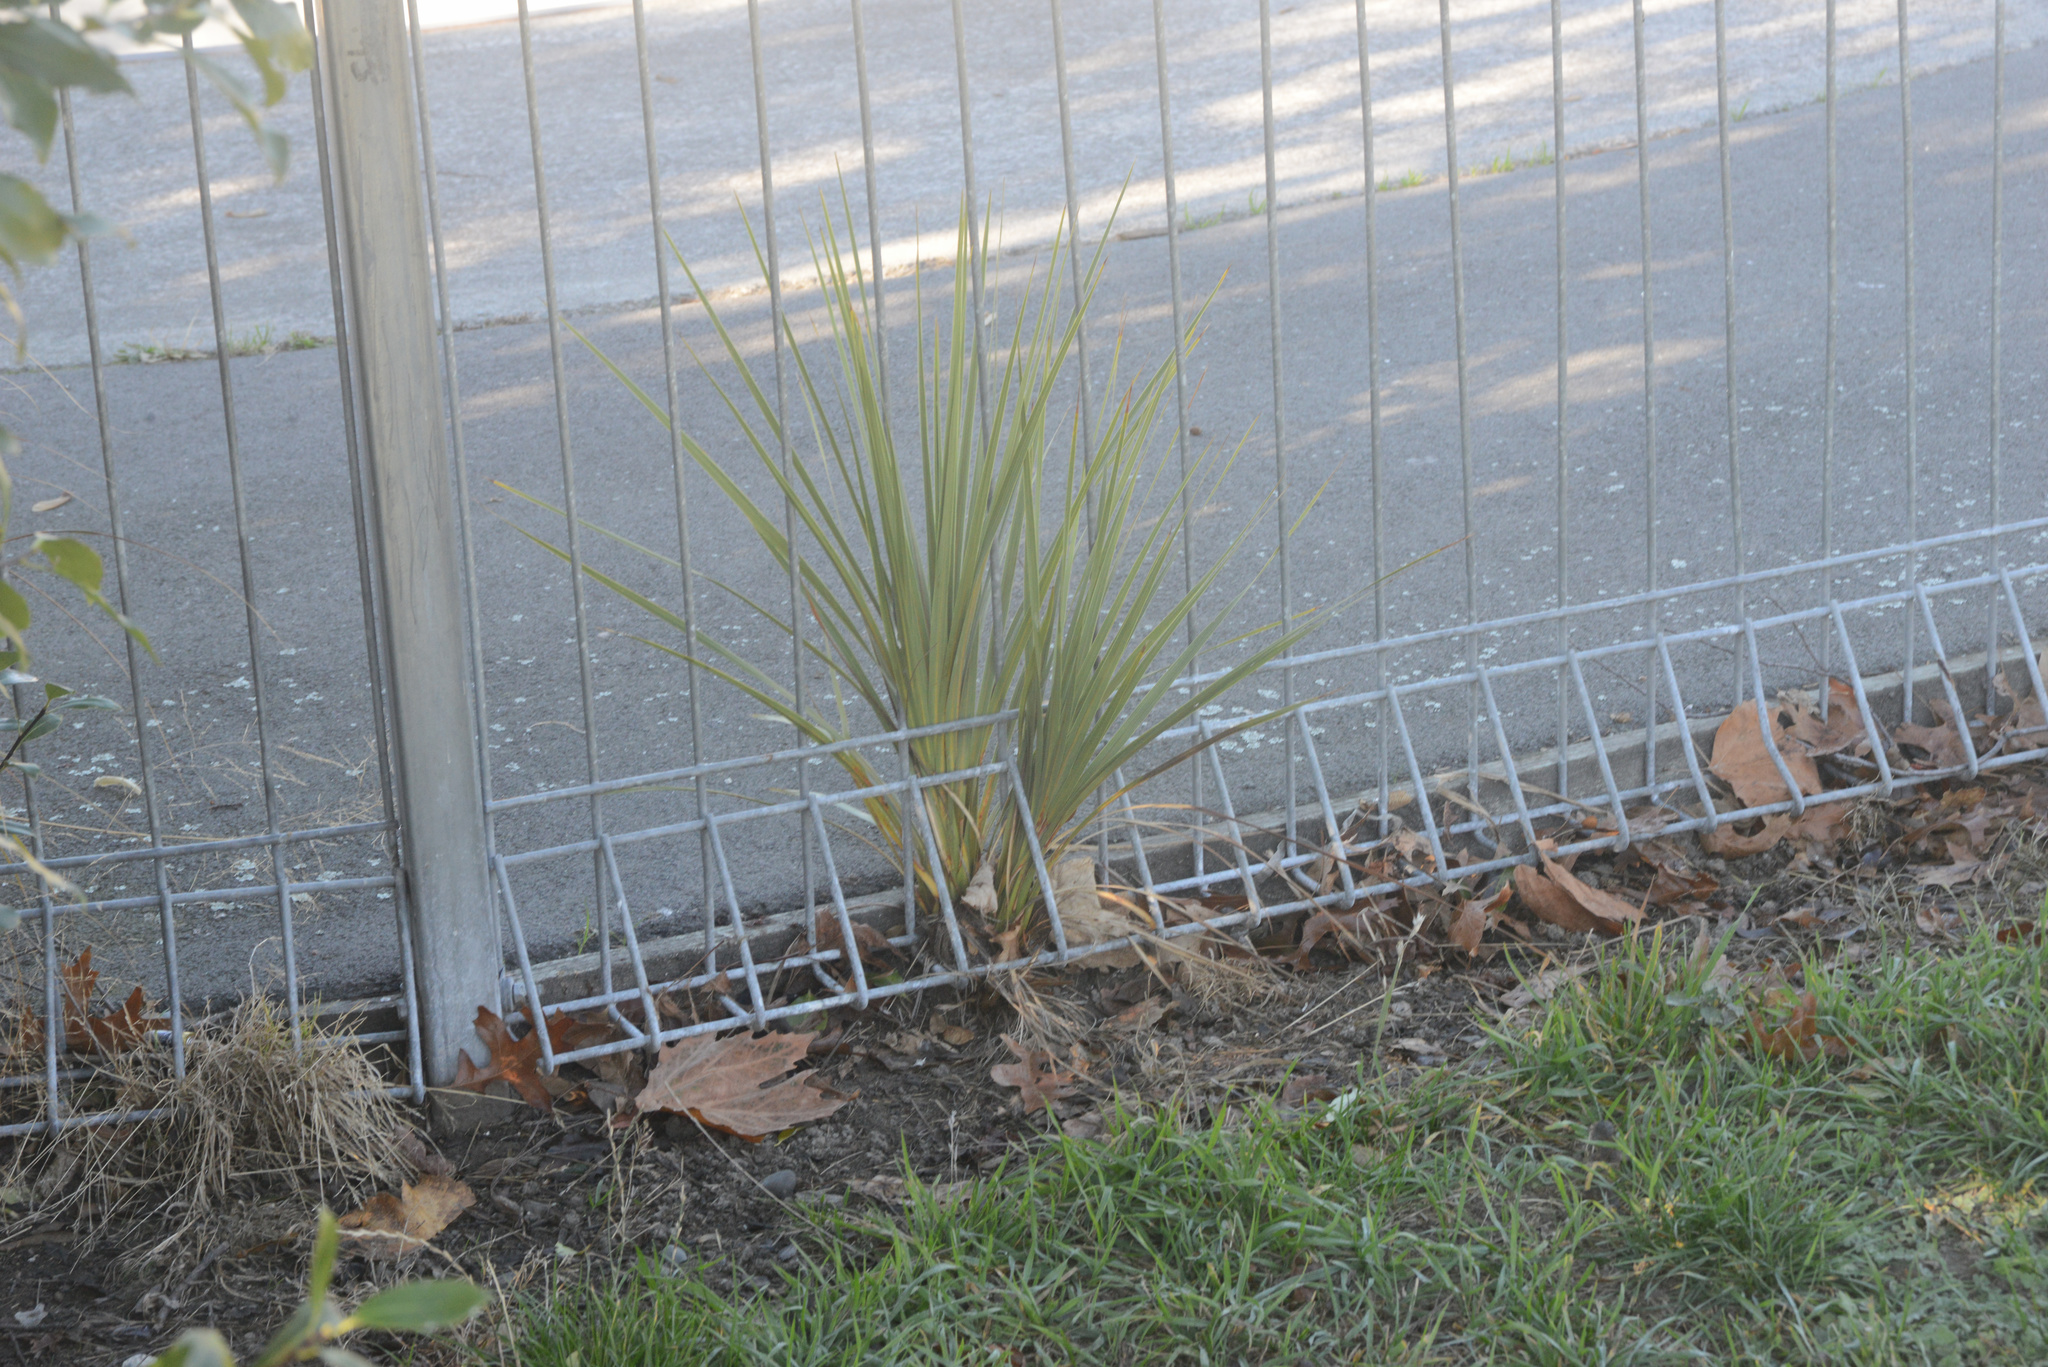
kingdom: Plantae
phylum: Tracheophyta
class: Liliopsida
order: Asparagales
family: Asparagaceae
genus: Cordyline
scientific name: Cordyline australis
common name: Cabbage-palm
